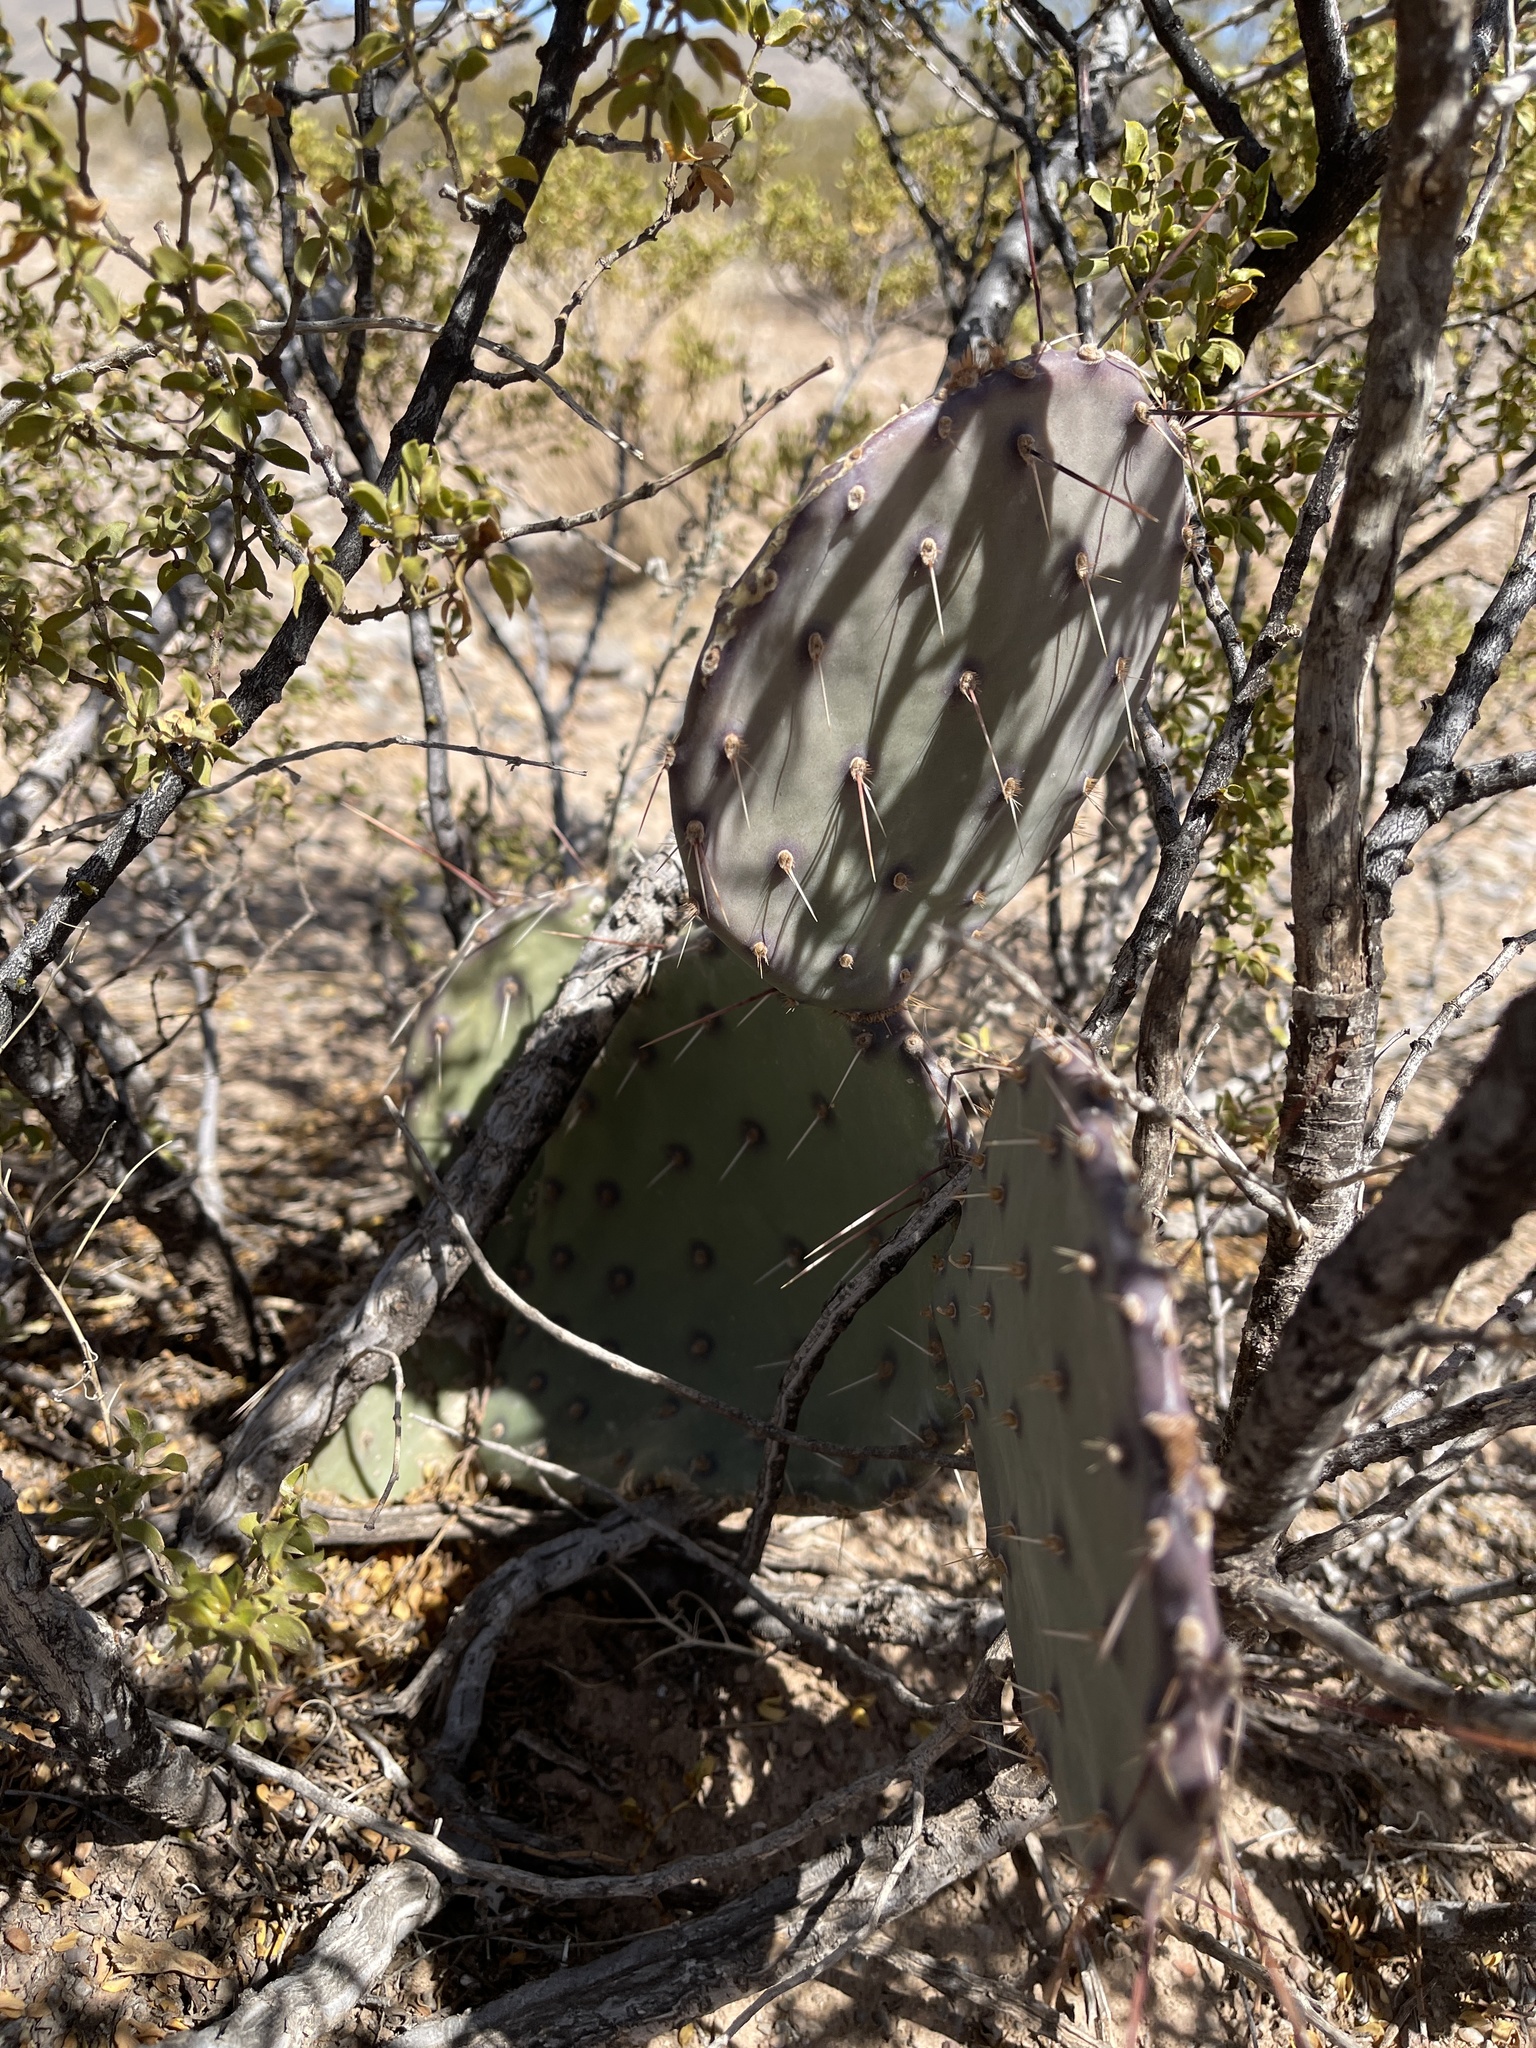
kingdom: Plantae
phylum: Tracheophyta
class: Magnoliopsida
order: Caryophyllales
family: Cactaceae
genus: Opuntia
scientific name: Opuntia macrocentra
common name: Purple prickly-pear
